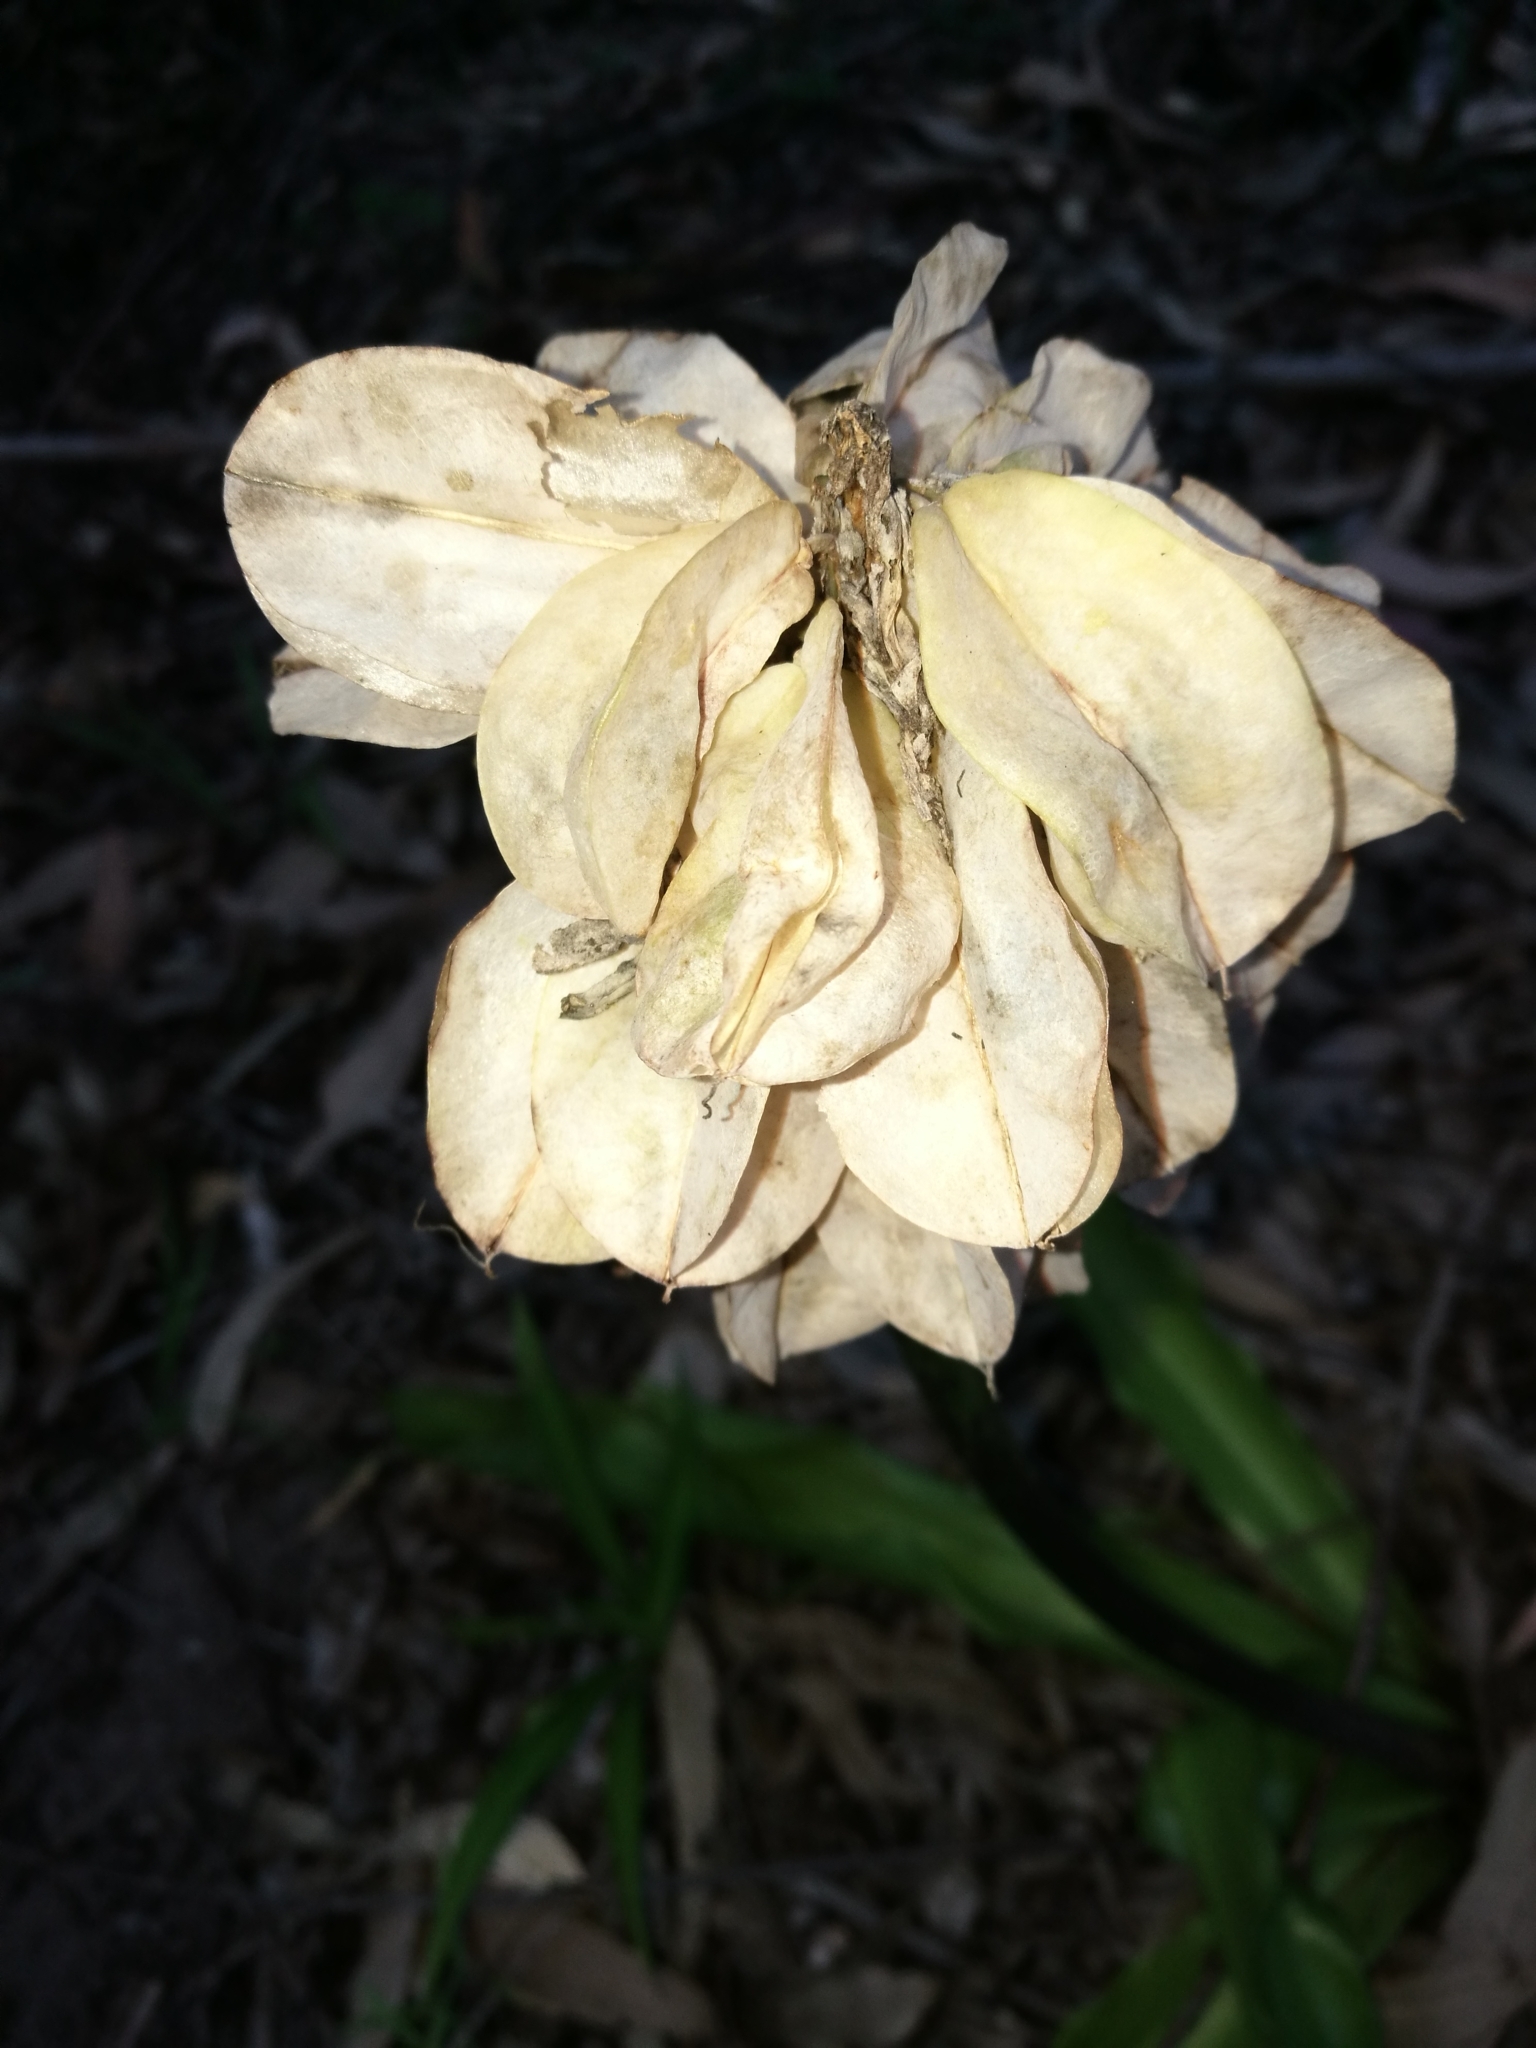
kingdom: Plantae
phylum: Tracheophyta
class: Liliopsida
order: Asparagales
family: Asparagaceae
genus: Veltheimia
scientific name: Veltheimia bracteata
